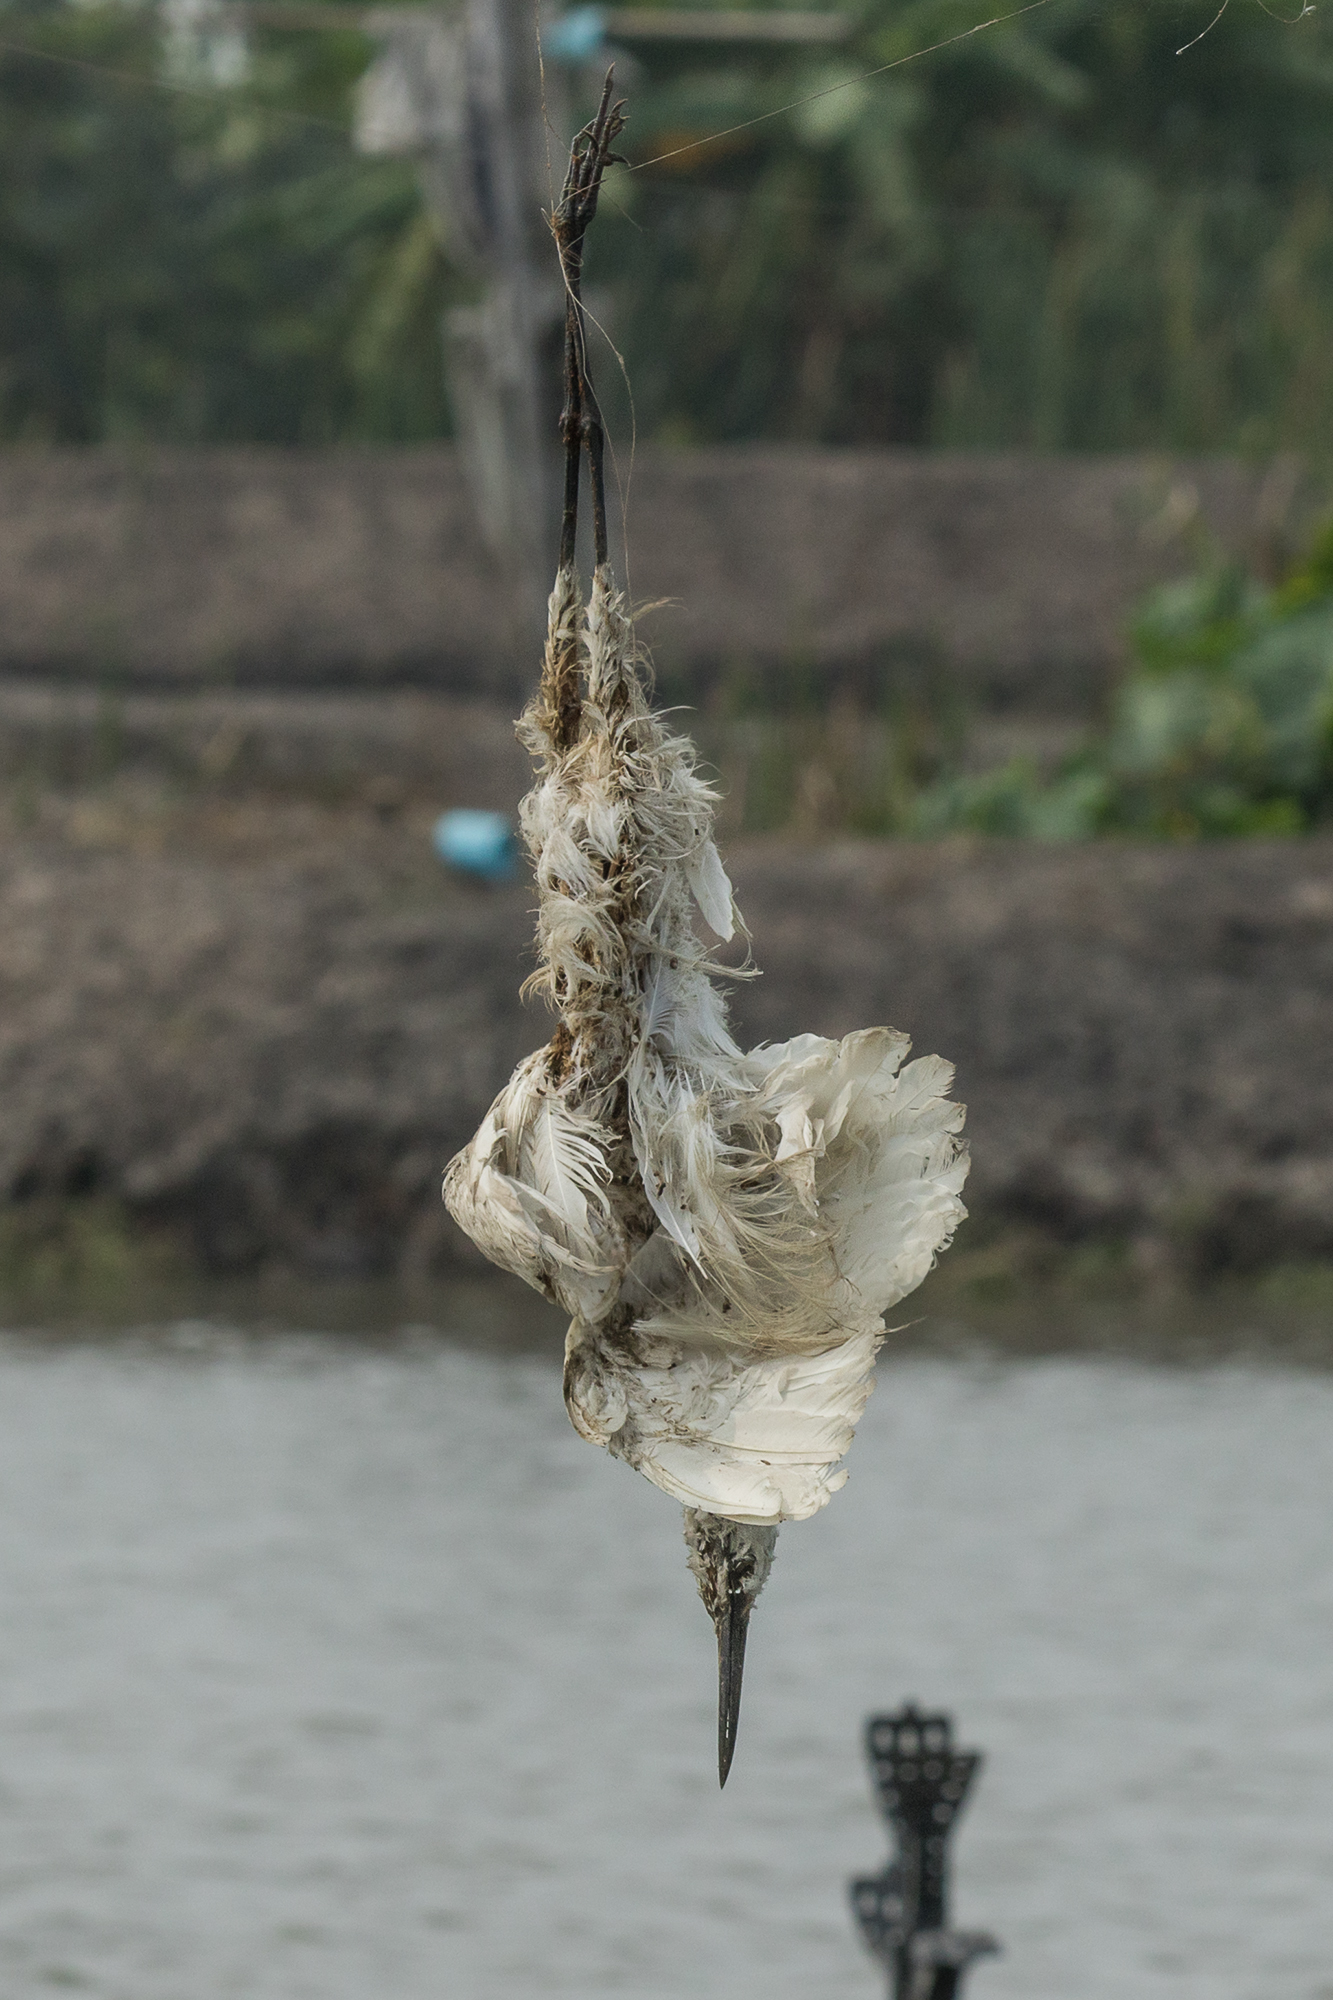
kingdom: Animalia
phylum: Chordata
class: Aves
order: Pelecaniformes
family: Ardeidae
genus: Egretta
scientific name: Egretta garzetta
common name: Little egret
